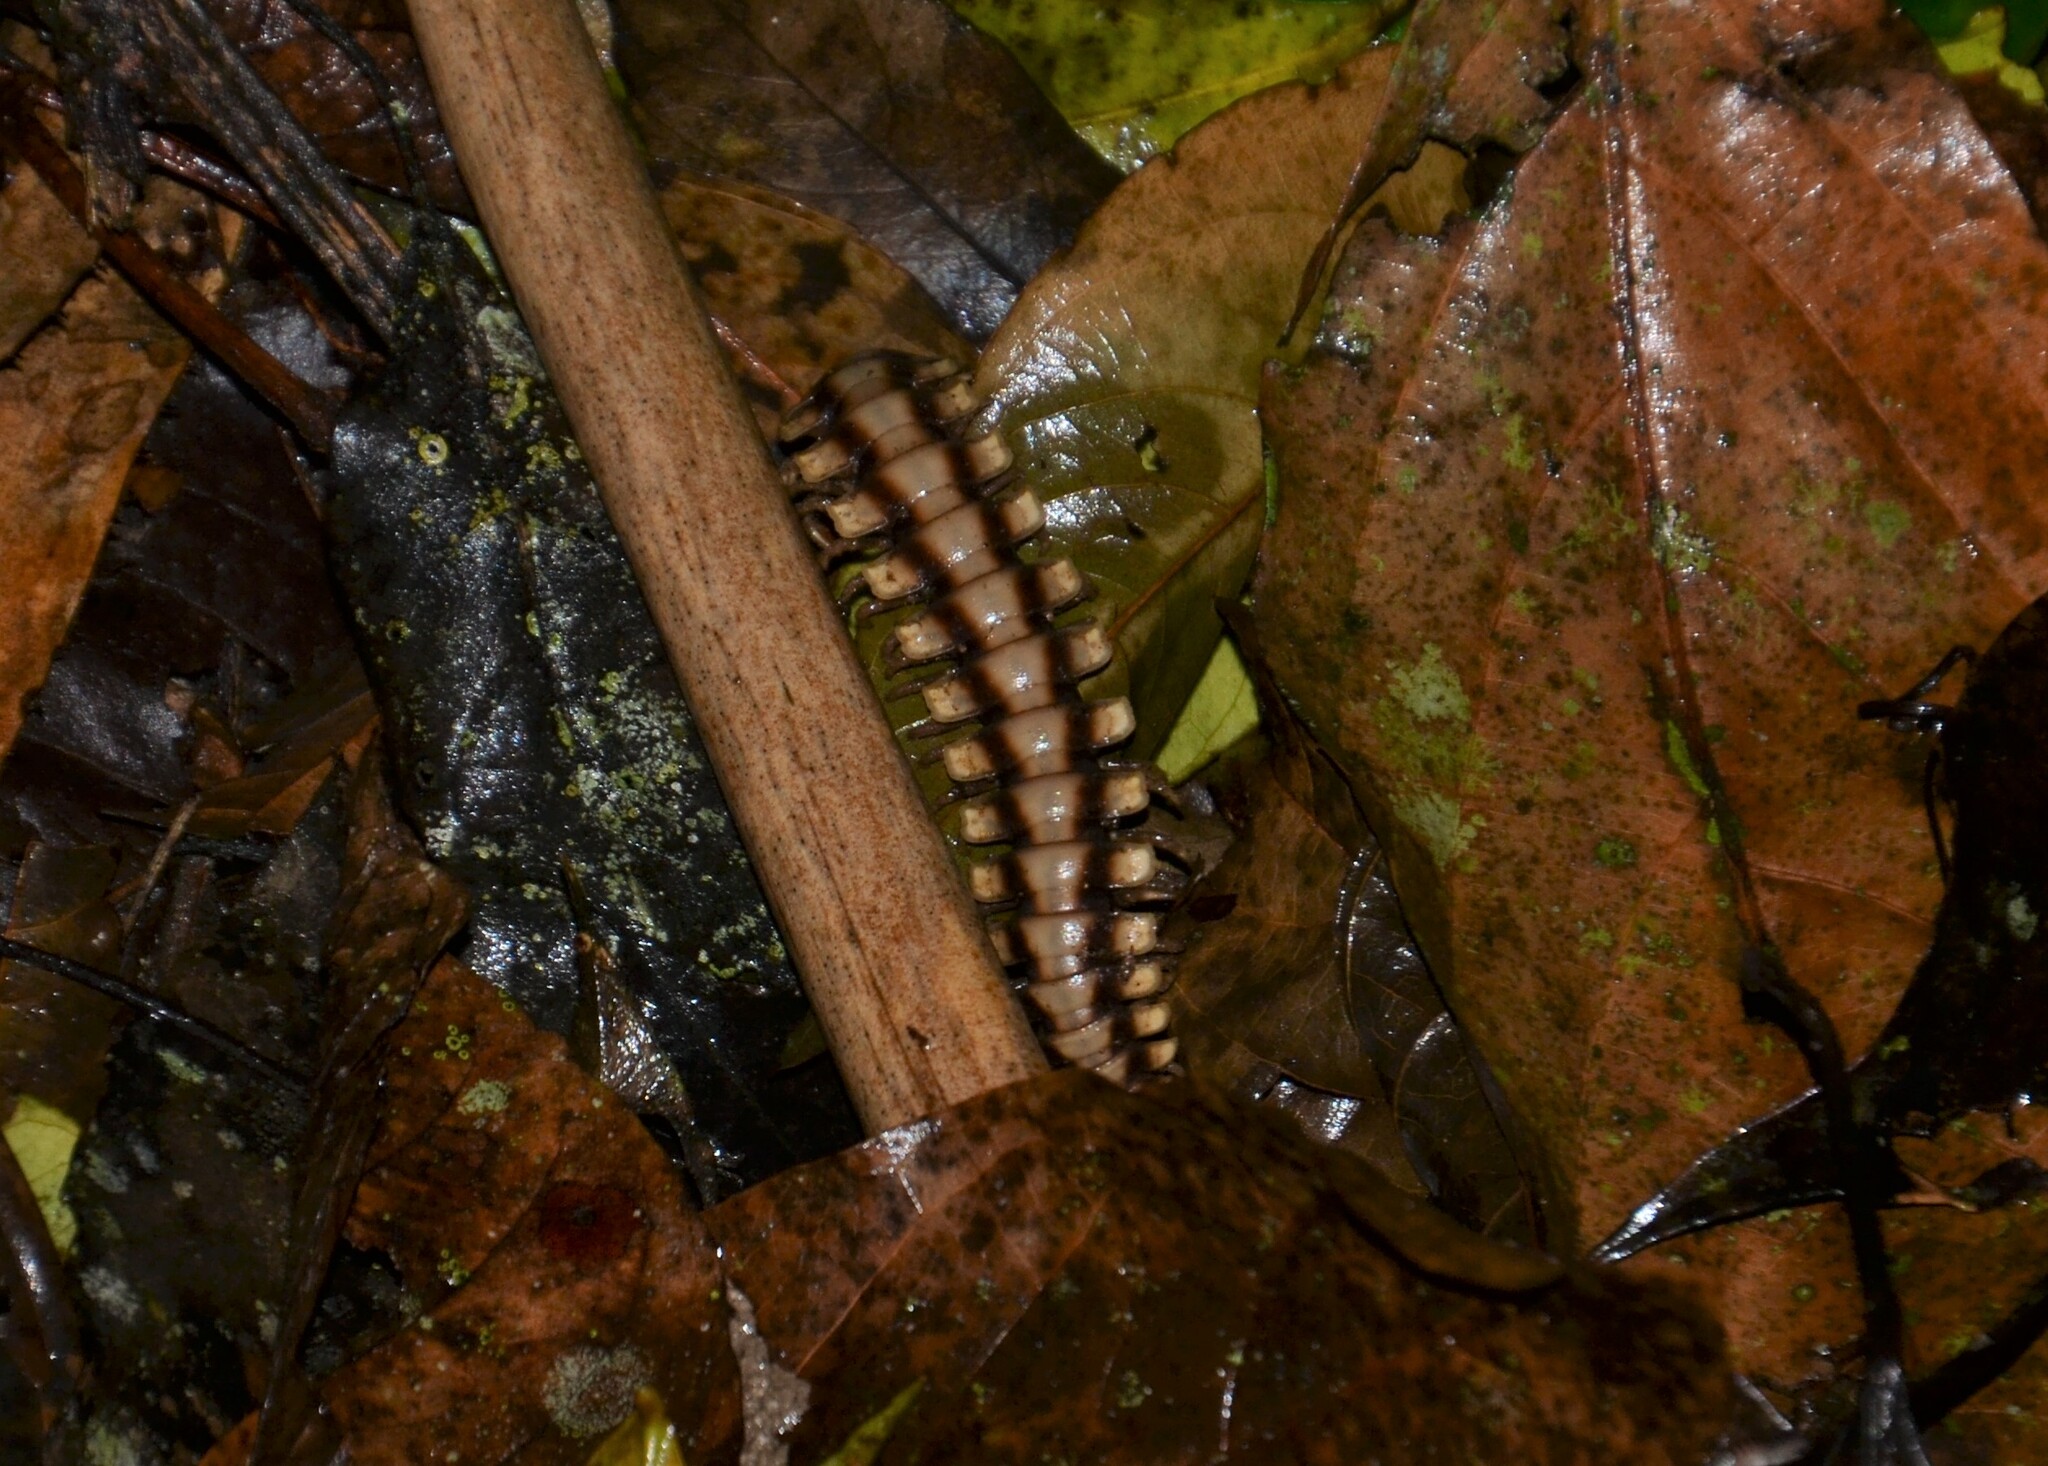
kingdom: Animalia
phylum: Arthropoda
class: Diplopoda
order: Polydesmida
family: Platyrhacidae
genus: Nyssodesmus
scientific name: Nyssodesmus python
